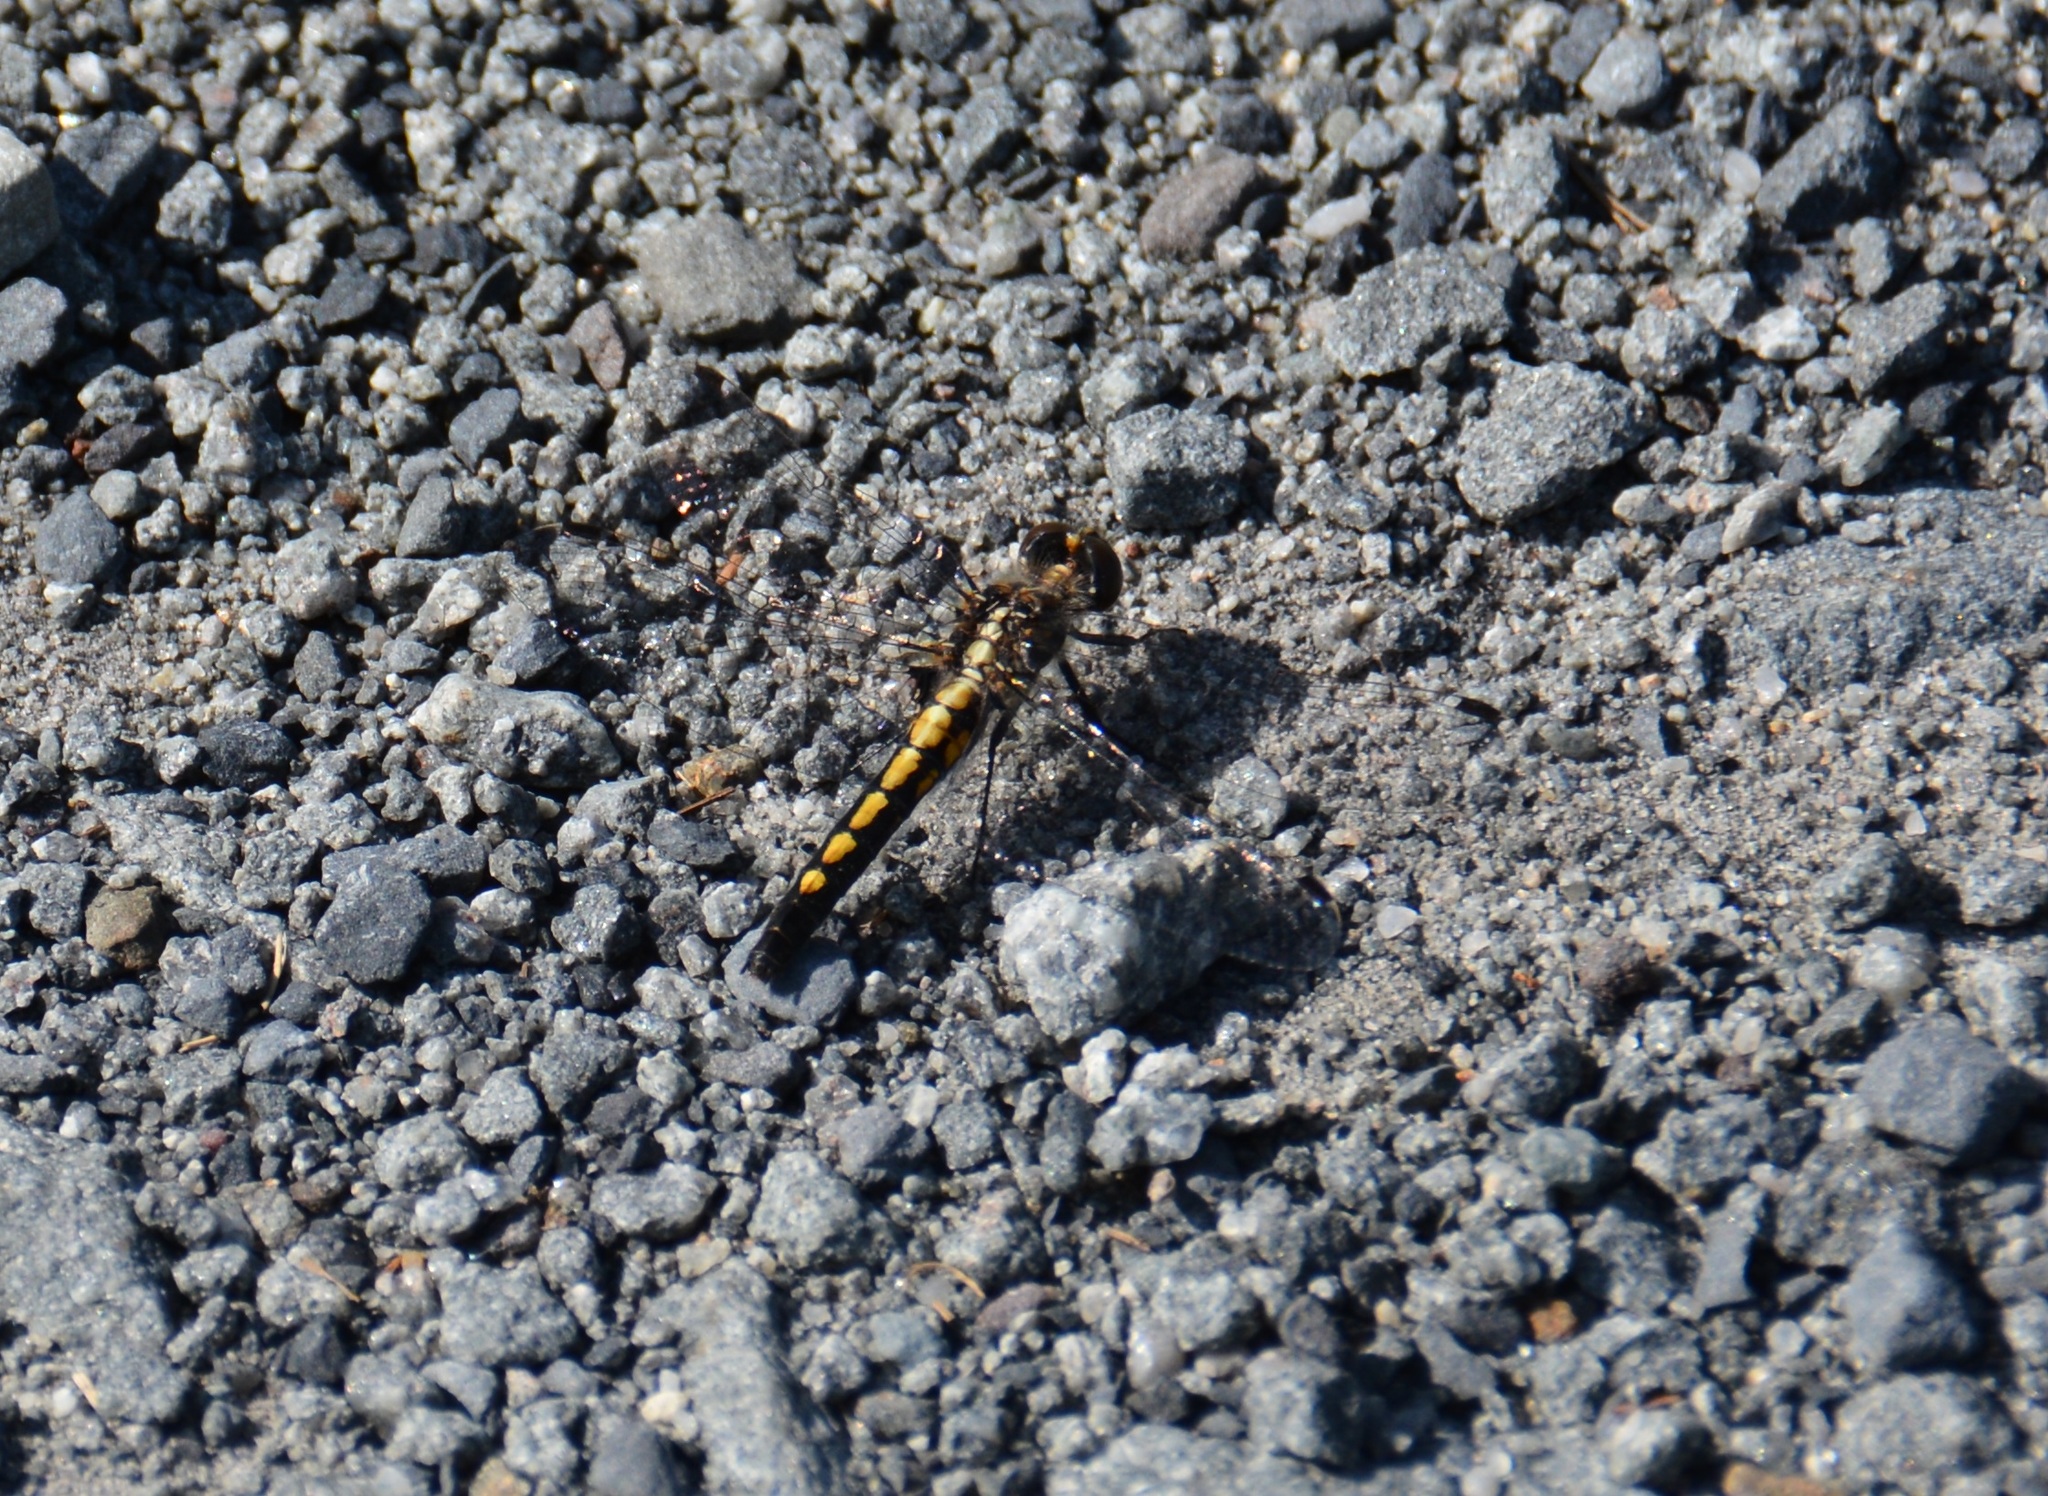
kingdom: Animalia
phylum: Arthropoda
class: Insecta
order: Odonata
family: Libellulidae
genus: Leucorrhinia
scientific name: Leucorrhinia intacta
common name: Dot-tailed whiteface
